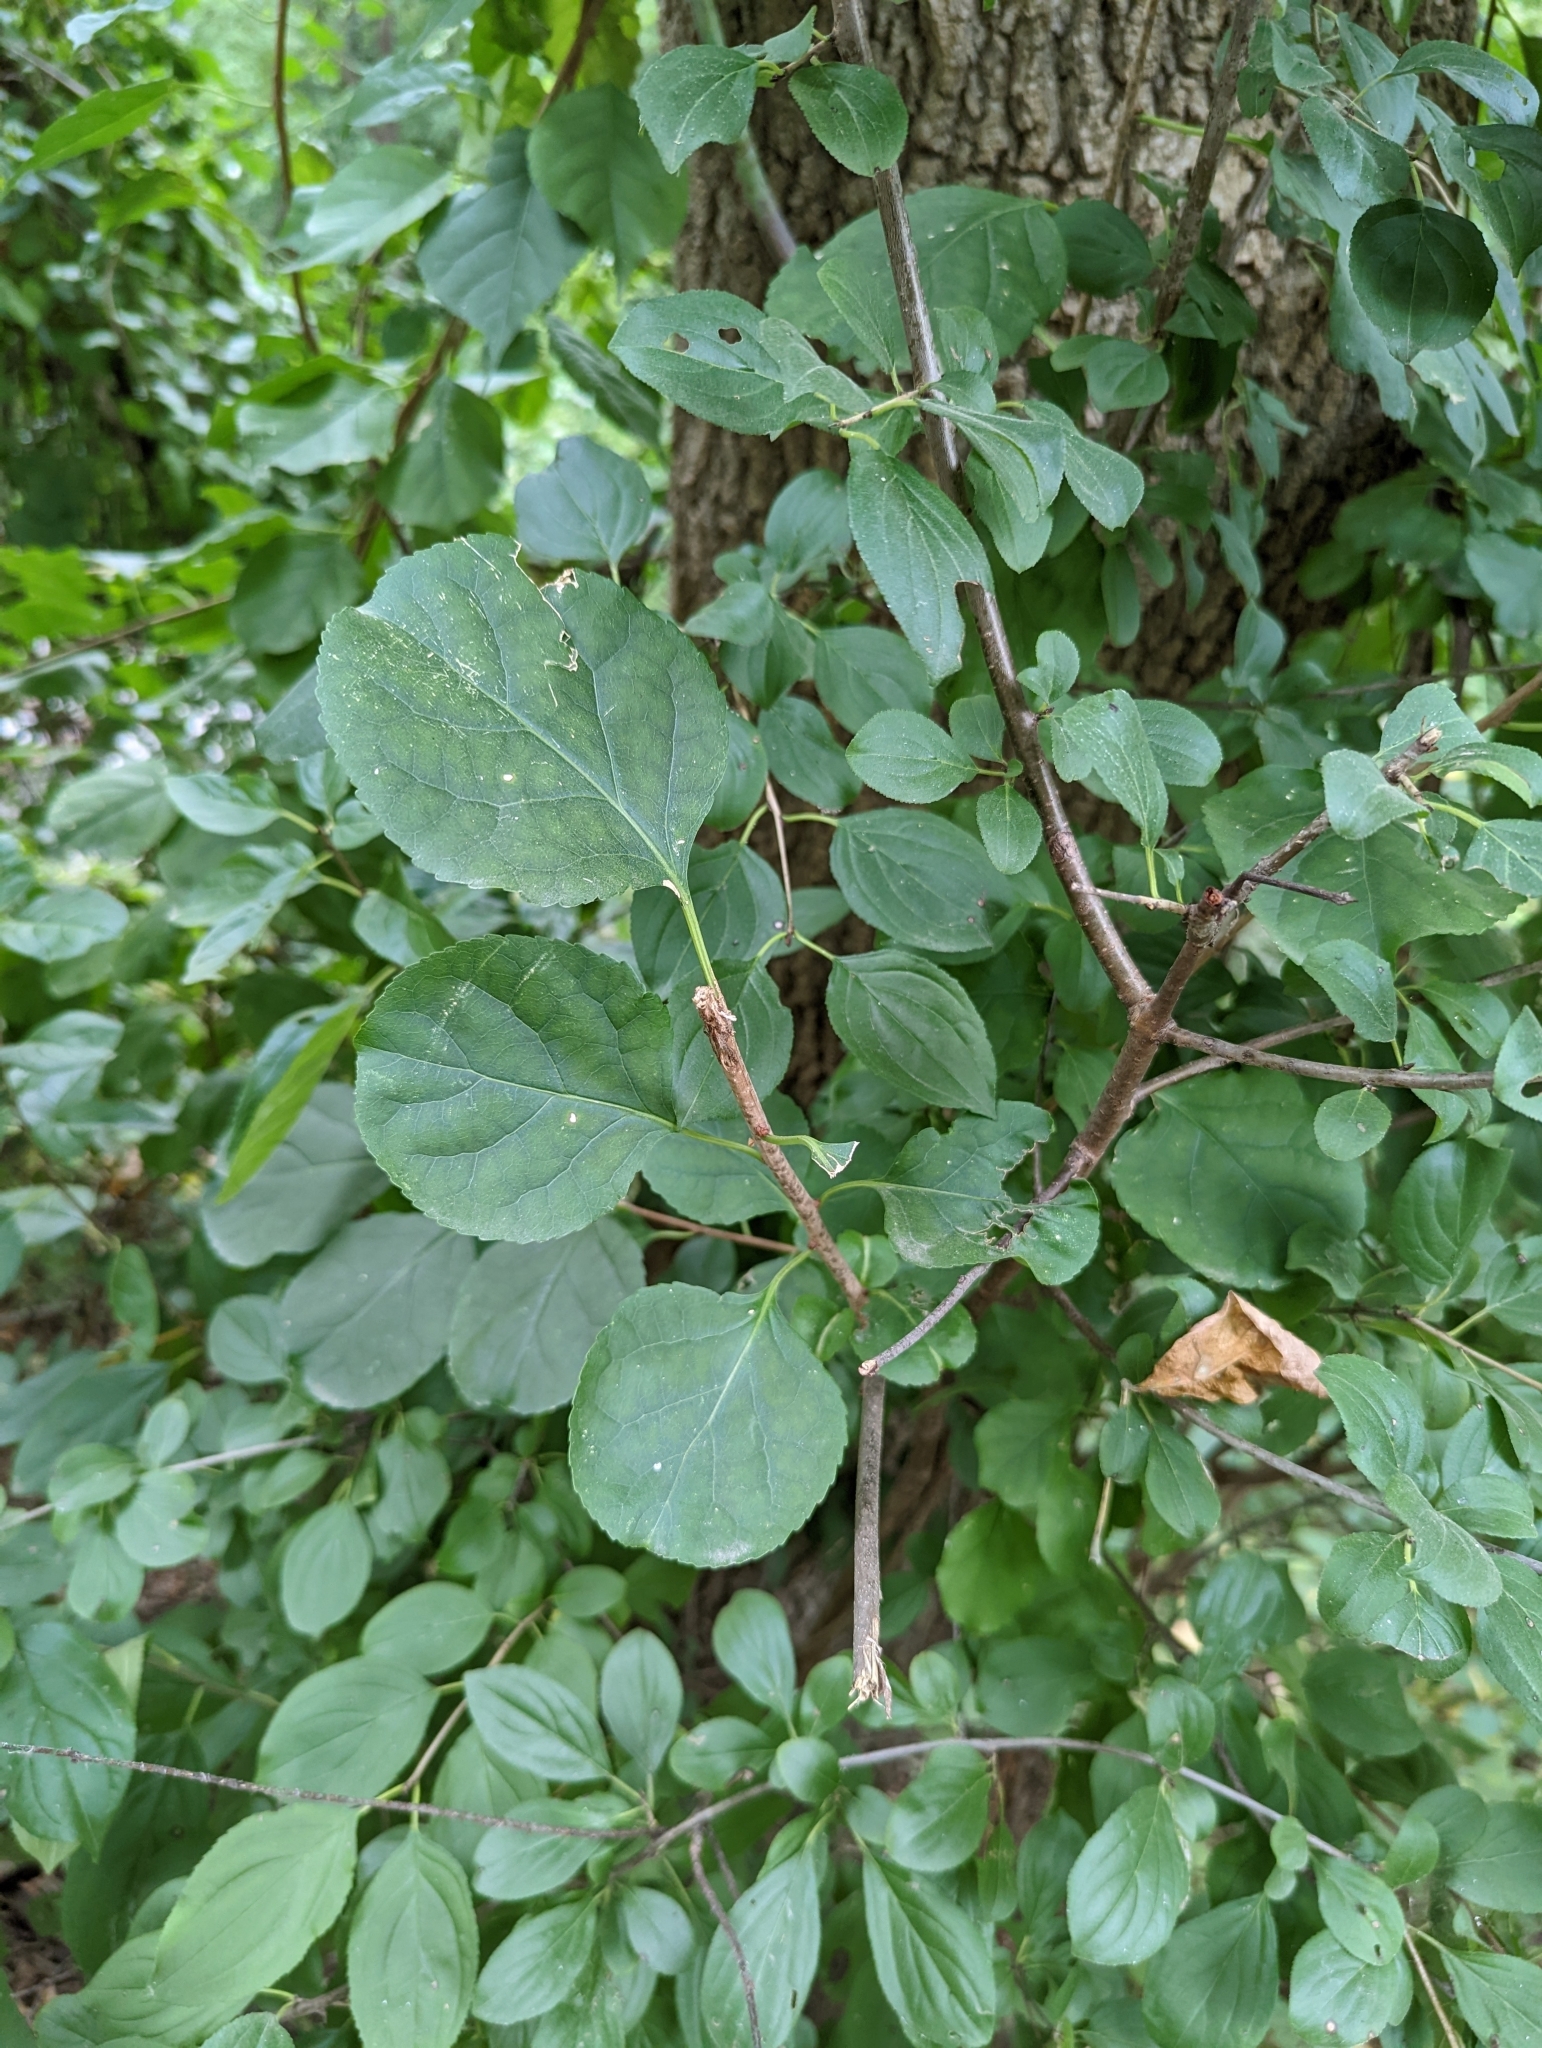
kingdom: Plantae
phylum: Tracheophyta
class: Magnoliopsida
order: Rosales
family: Rhamnaceae
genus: Rhamnus
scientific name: Rhamnus cathartica
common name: Common buckthorn
